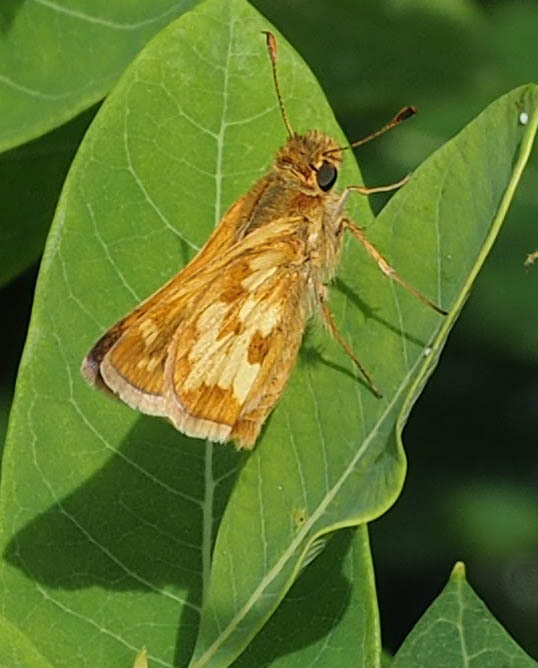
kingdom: Animalia
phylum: Arthropoda
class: Insecta
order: Lepidoptera
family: Hesperiidae
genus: Polites
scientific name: Polites coras
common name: Peck's skipper
